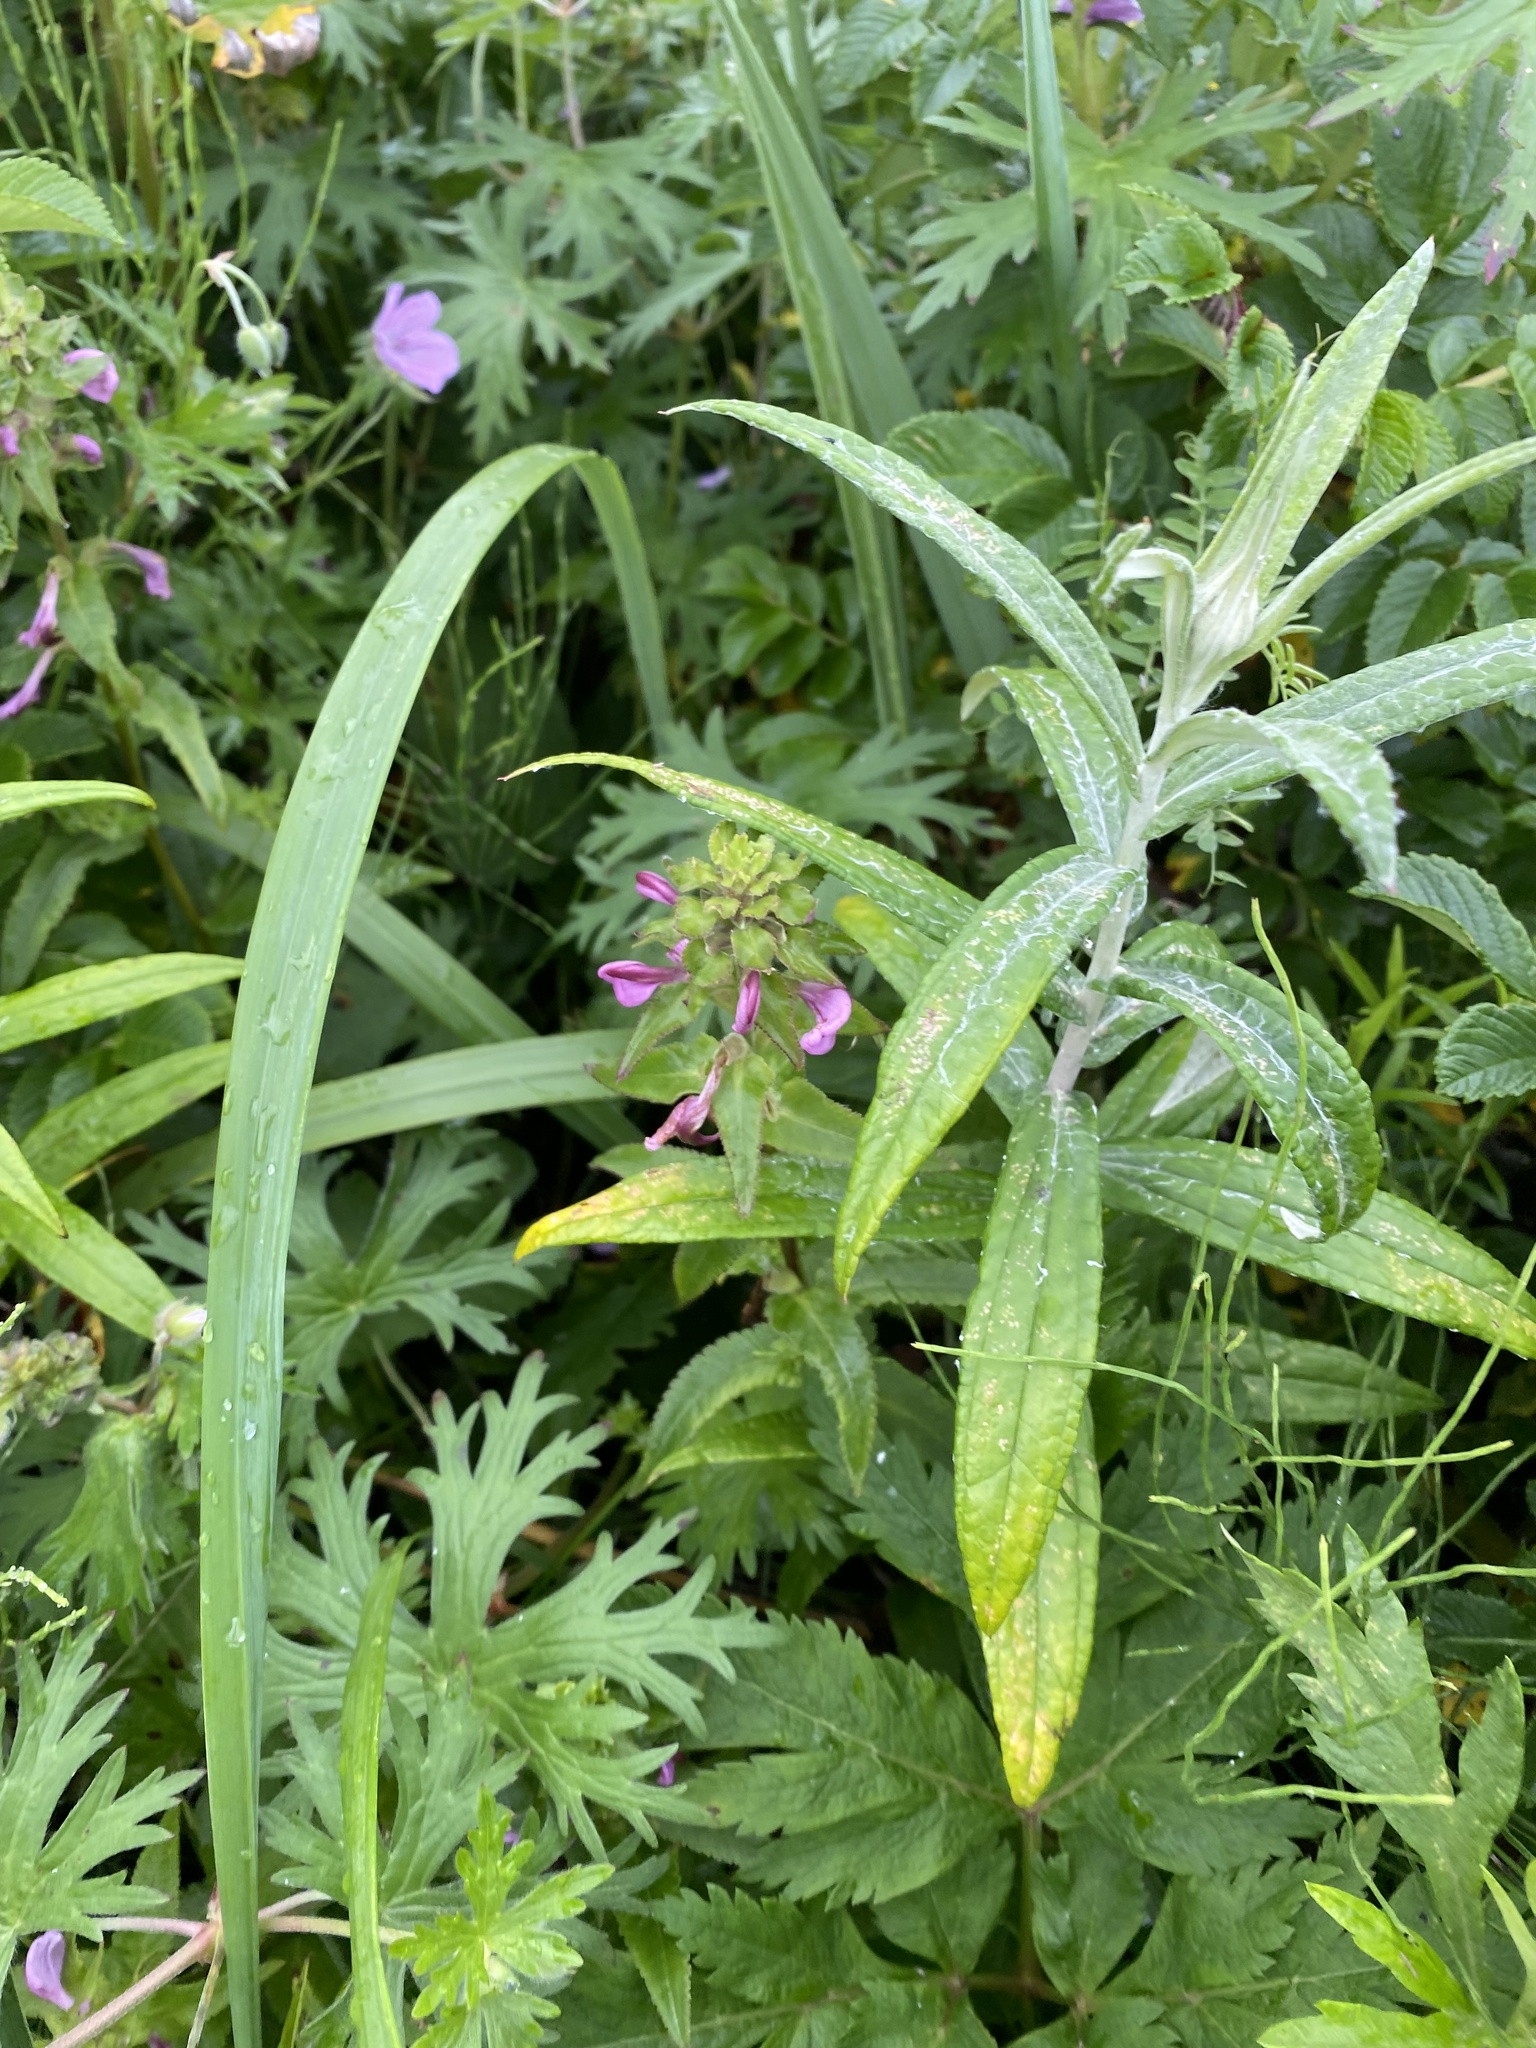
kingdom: Plantae
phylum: Tracheophyta
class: Magnoliopsida
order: Lamiales
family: Orobanchaceae
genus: Pedicularis
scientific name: Pedicularis resupinata
